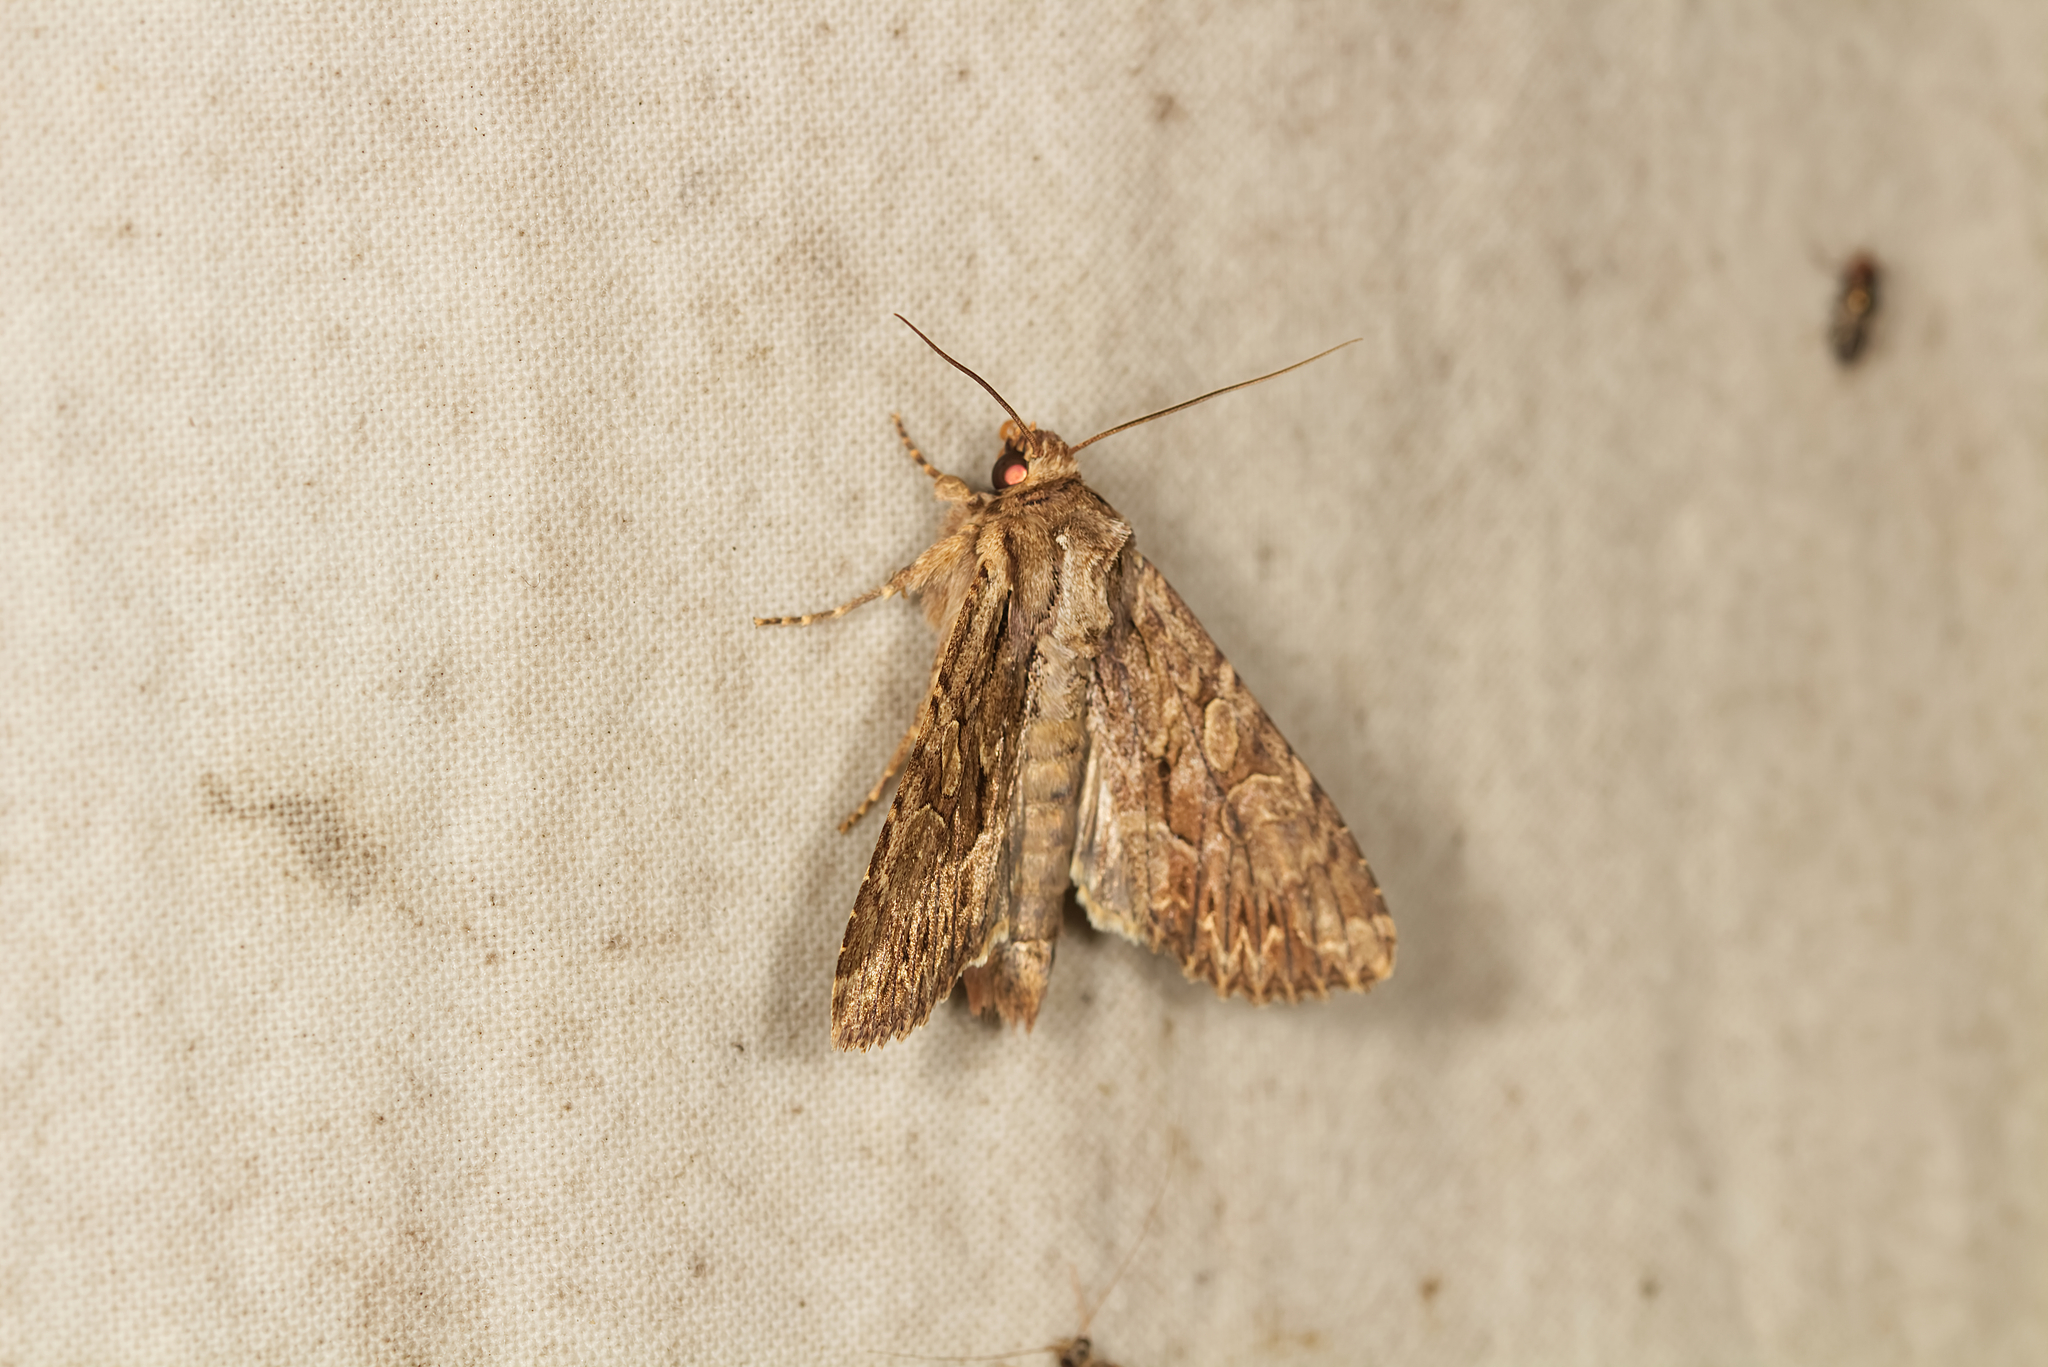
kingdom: Animalia
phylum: Arthropoda
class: Insecta
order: Lepidoptera
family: Noctuidae
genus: Apamea
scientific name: Apamea monoglypha
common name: Dark arches
